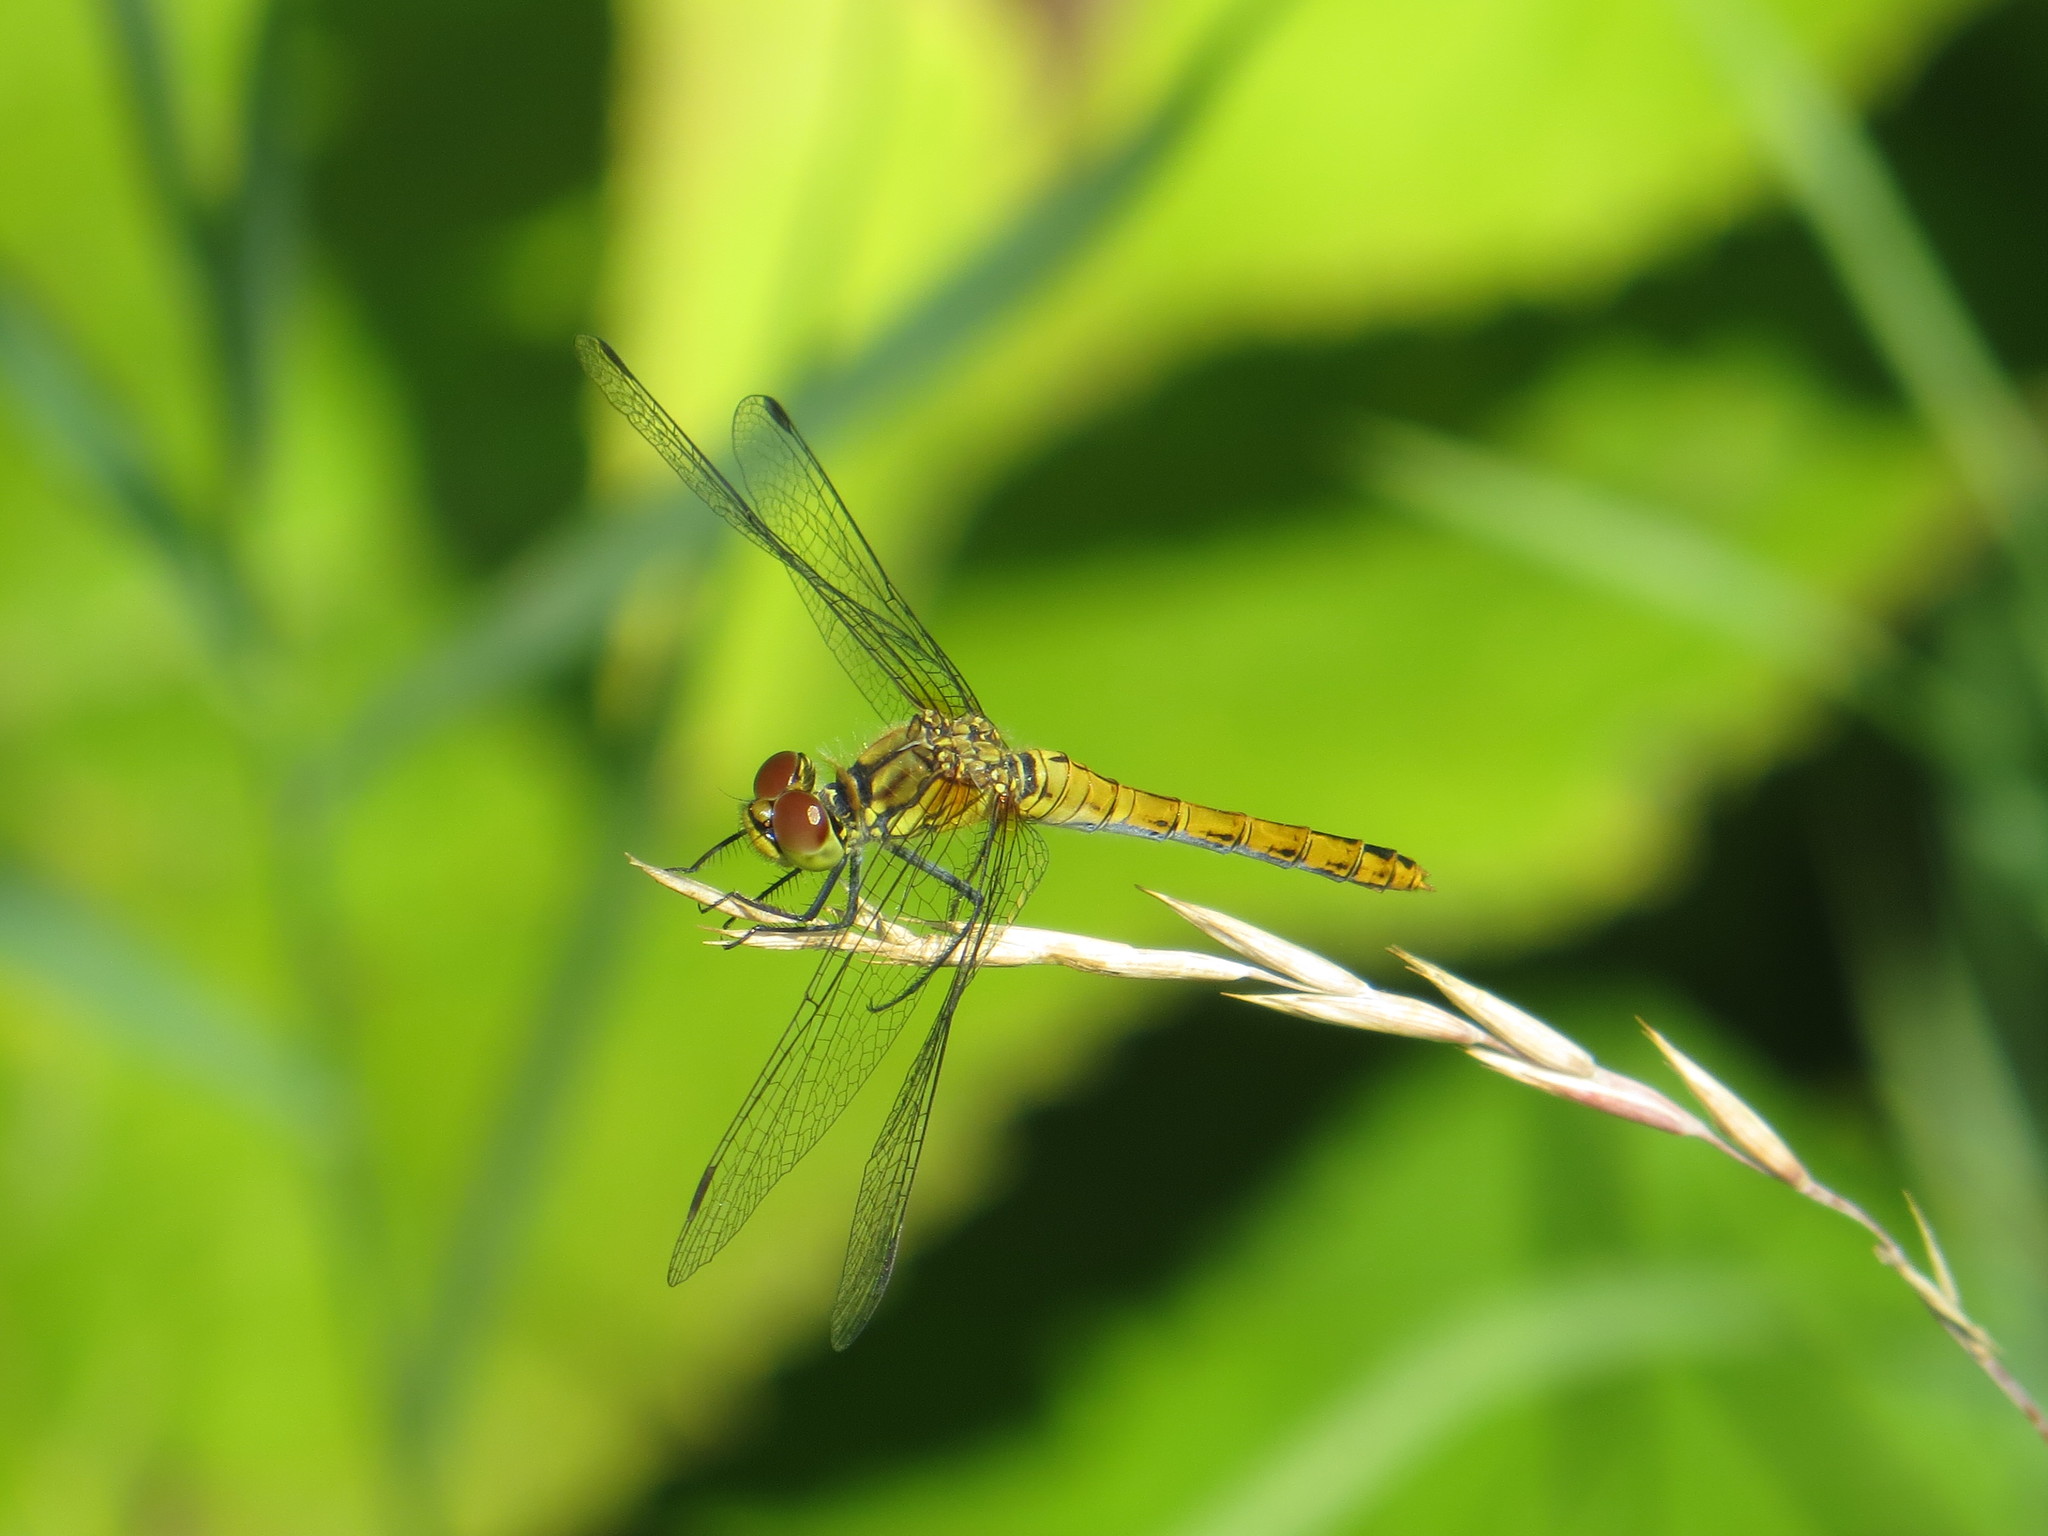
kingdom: Animalia
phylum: Arthropoda
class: Insecta
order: Odonata
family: Libellulidae
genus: Sympetrum
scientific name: Sympetrum sanguineum
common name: Ruddy darter
